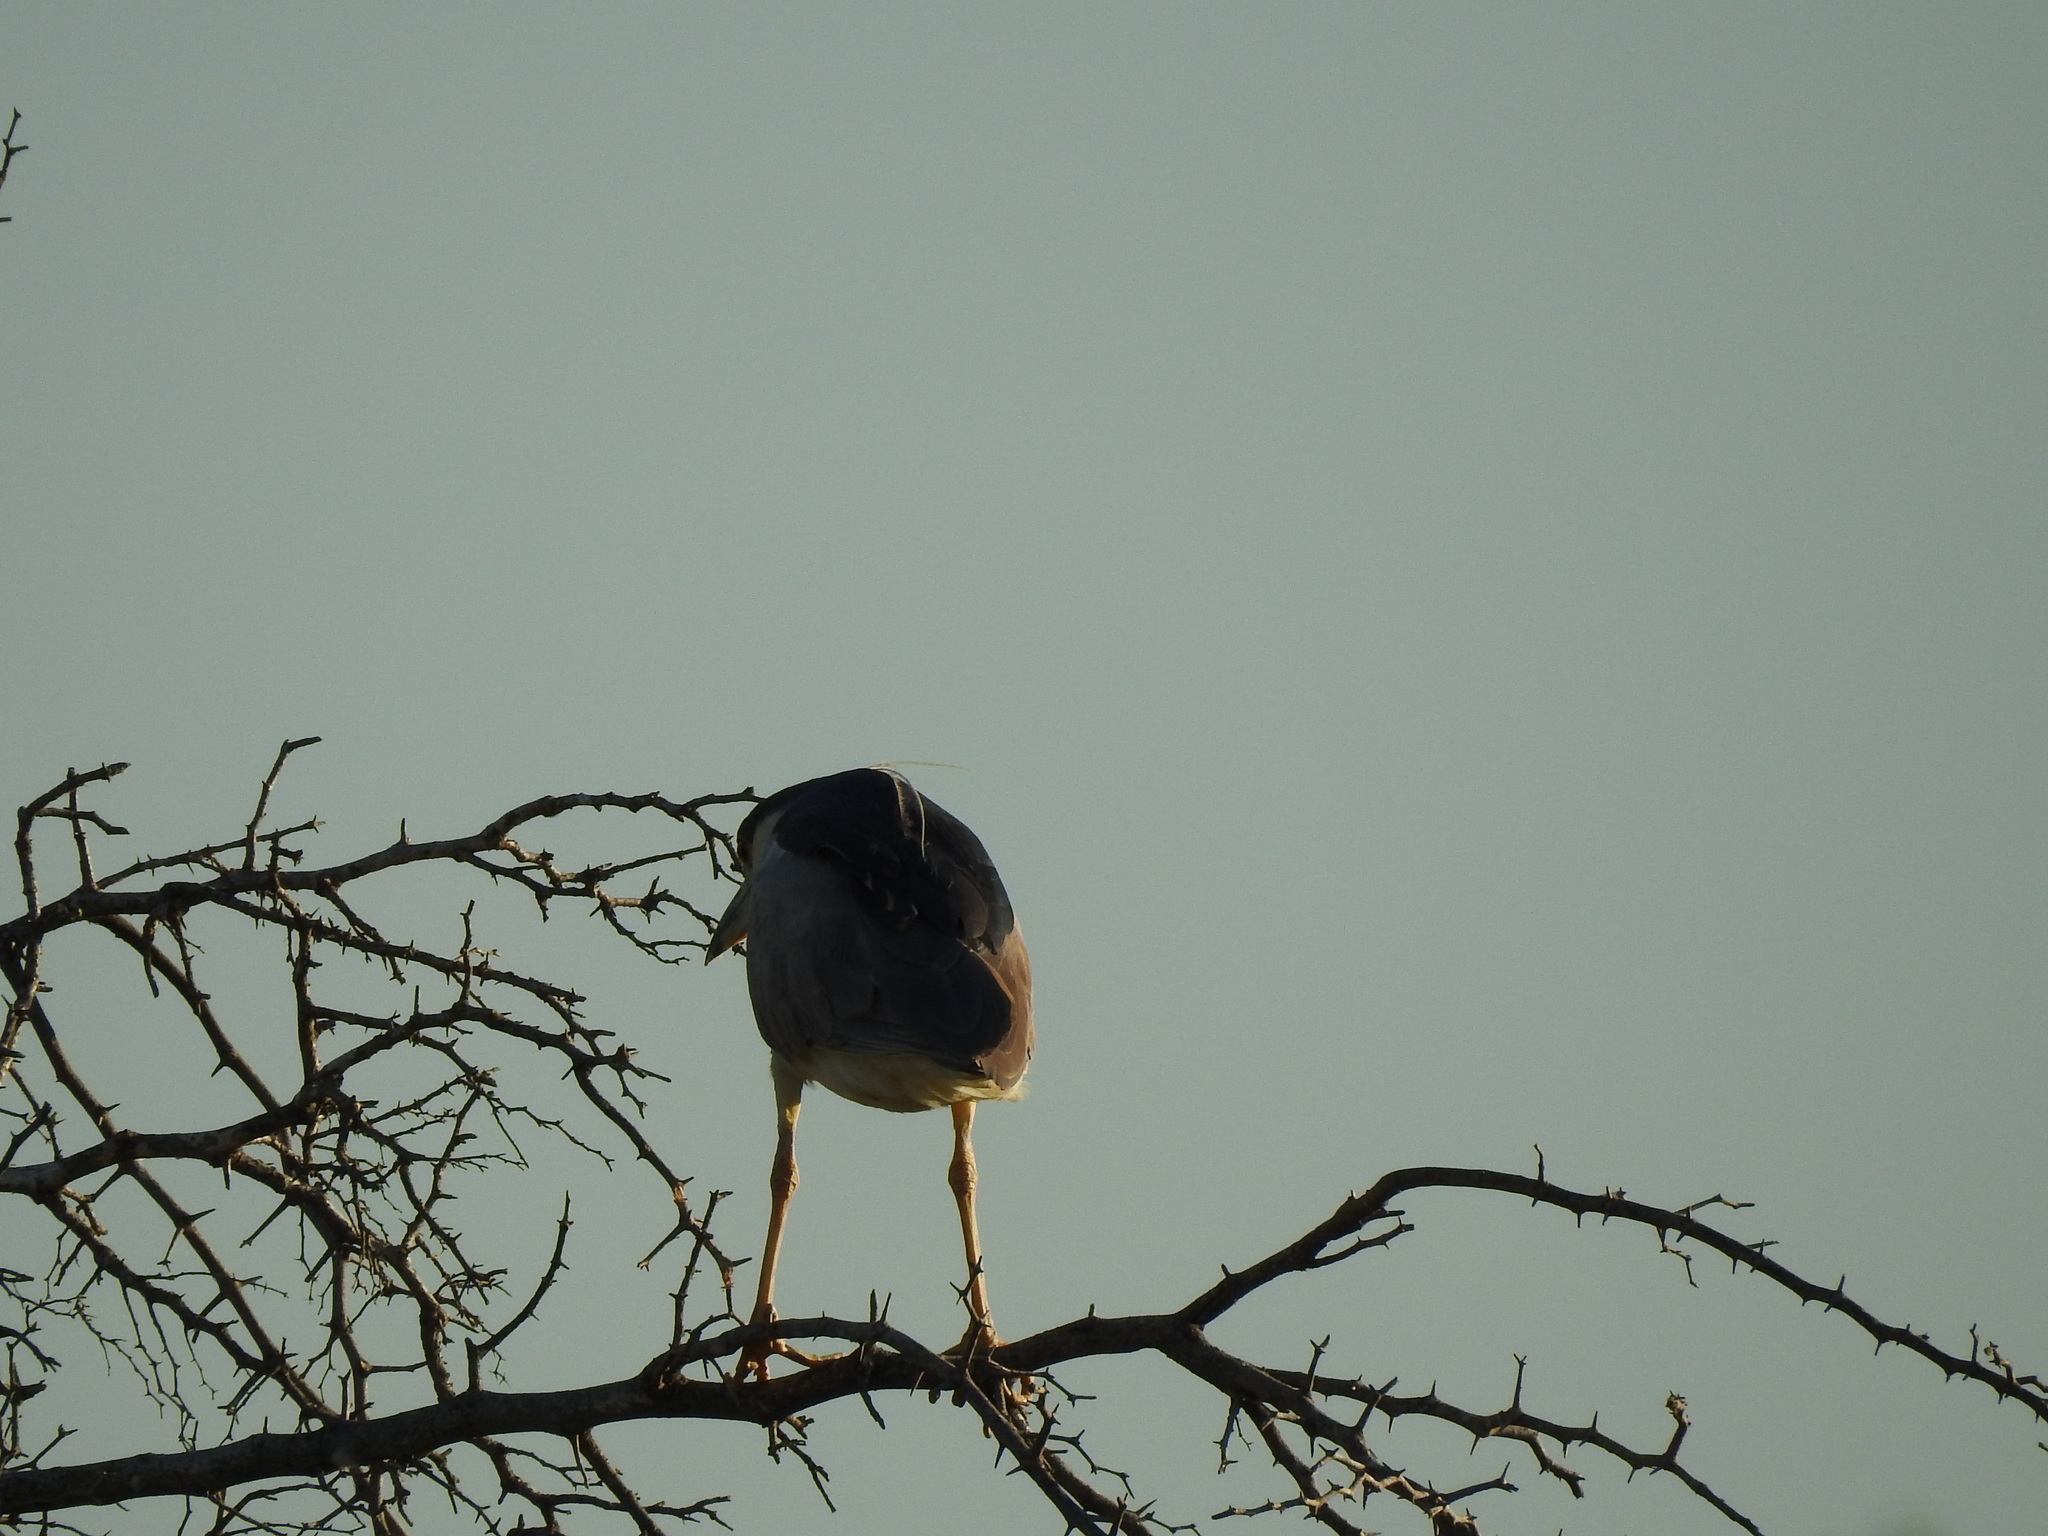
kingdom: Animalia
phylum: Chordata
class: Aves
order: Pelecaniformes
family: Ardeidae
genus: Nycticorax
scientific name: Nycticorax nycticorax
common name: Black-crowned night heron
